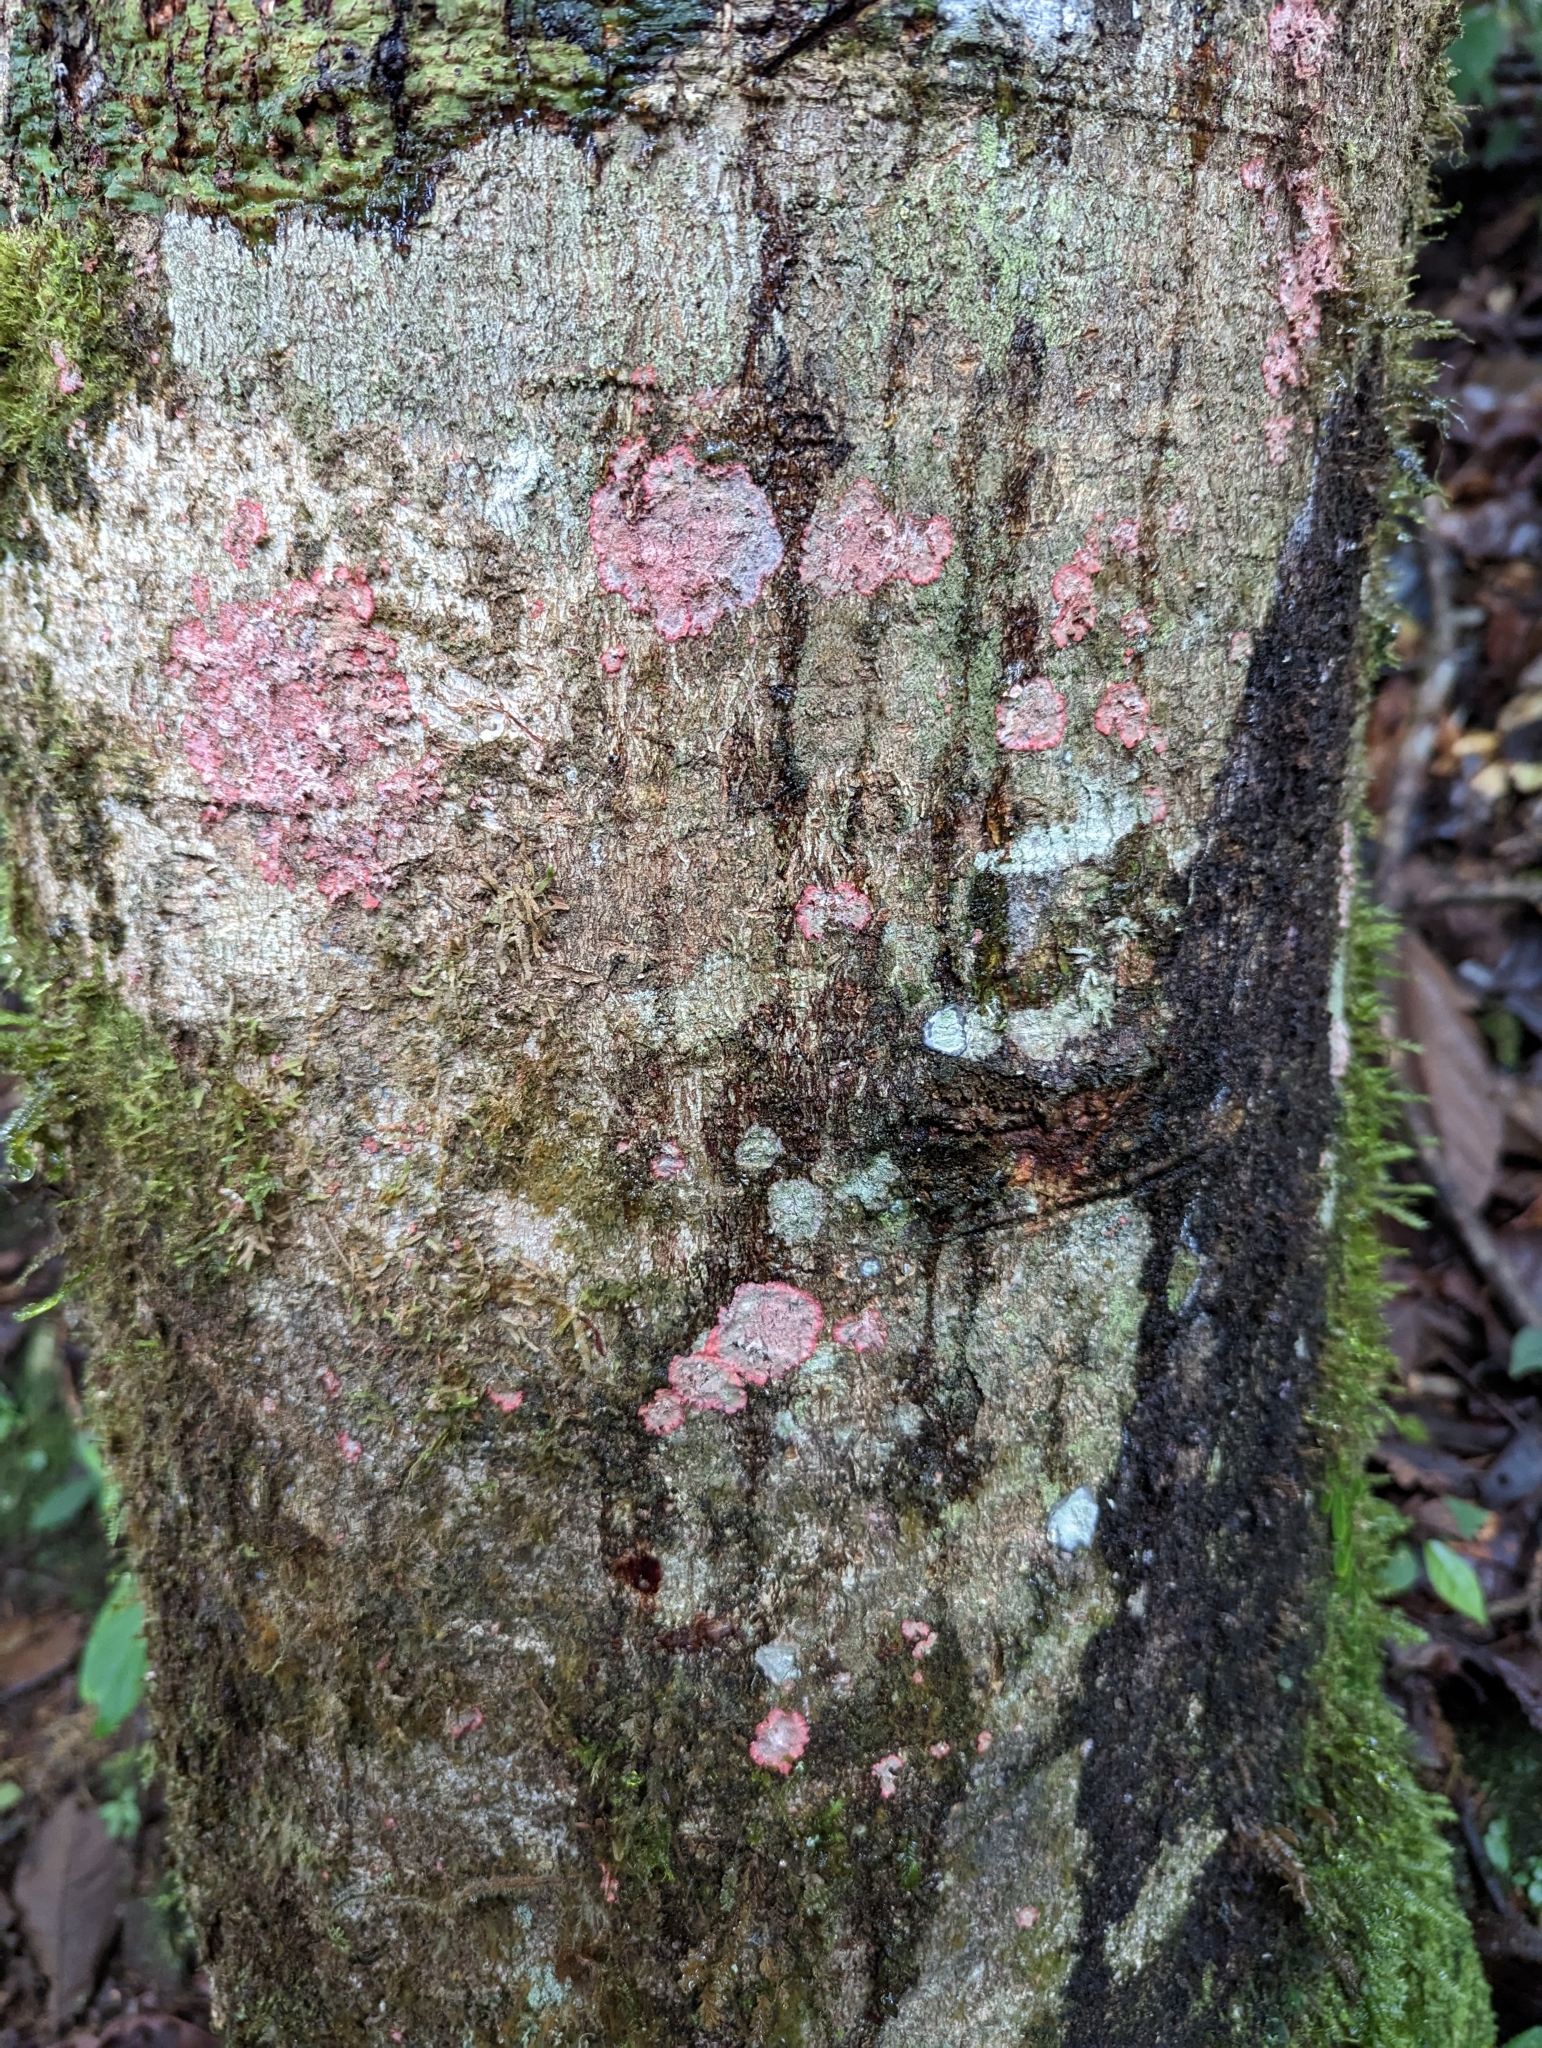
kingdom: Fungi
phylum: Ascomycota
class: Arthoniomycetes
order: Arthoniales
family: Arthoniaceae
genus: Herpothallon
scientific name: Herpothallon rubrocinctum
